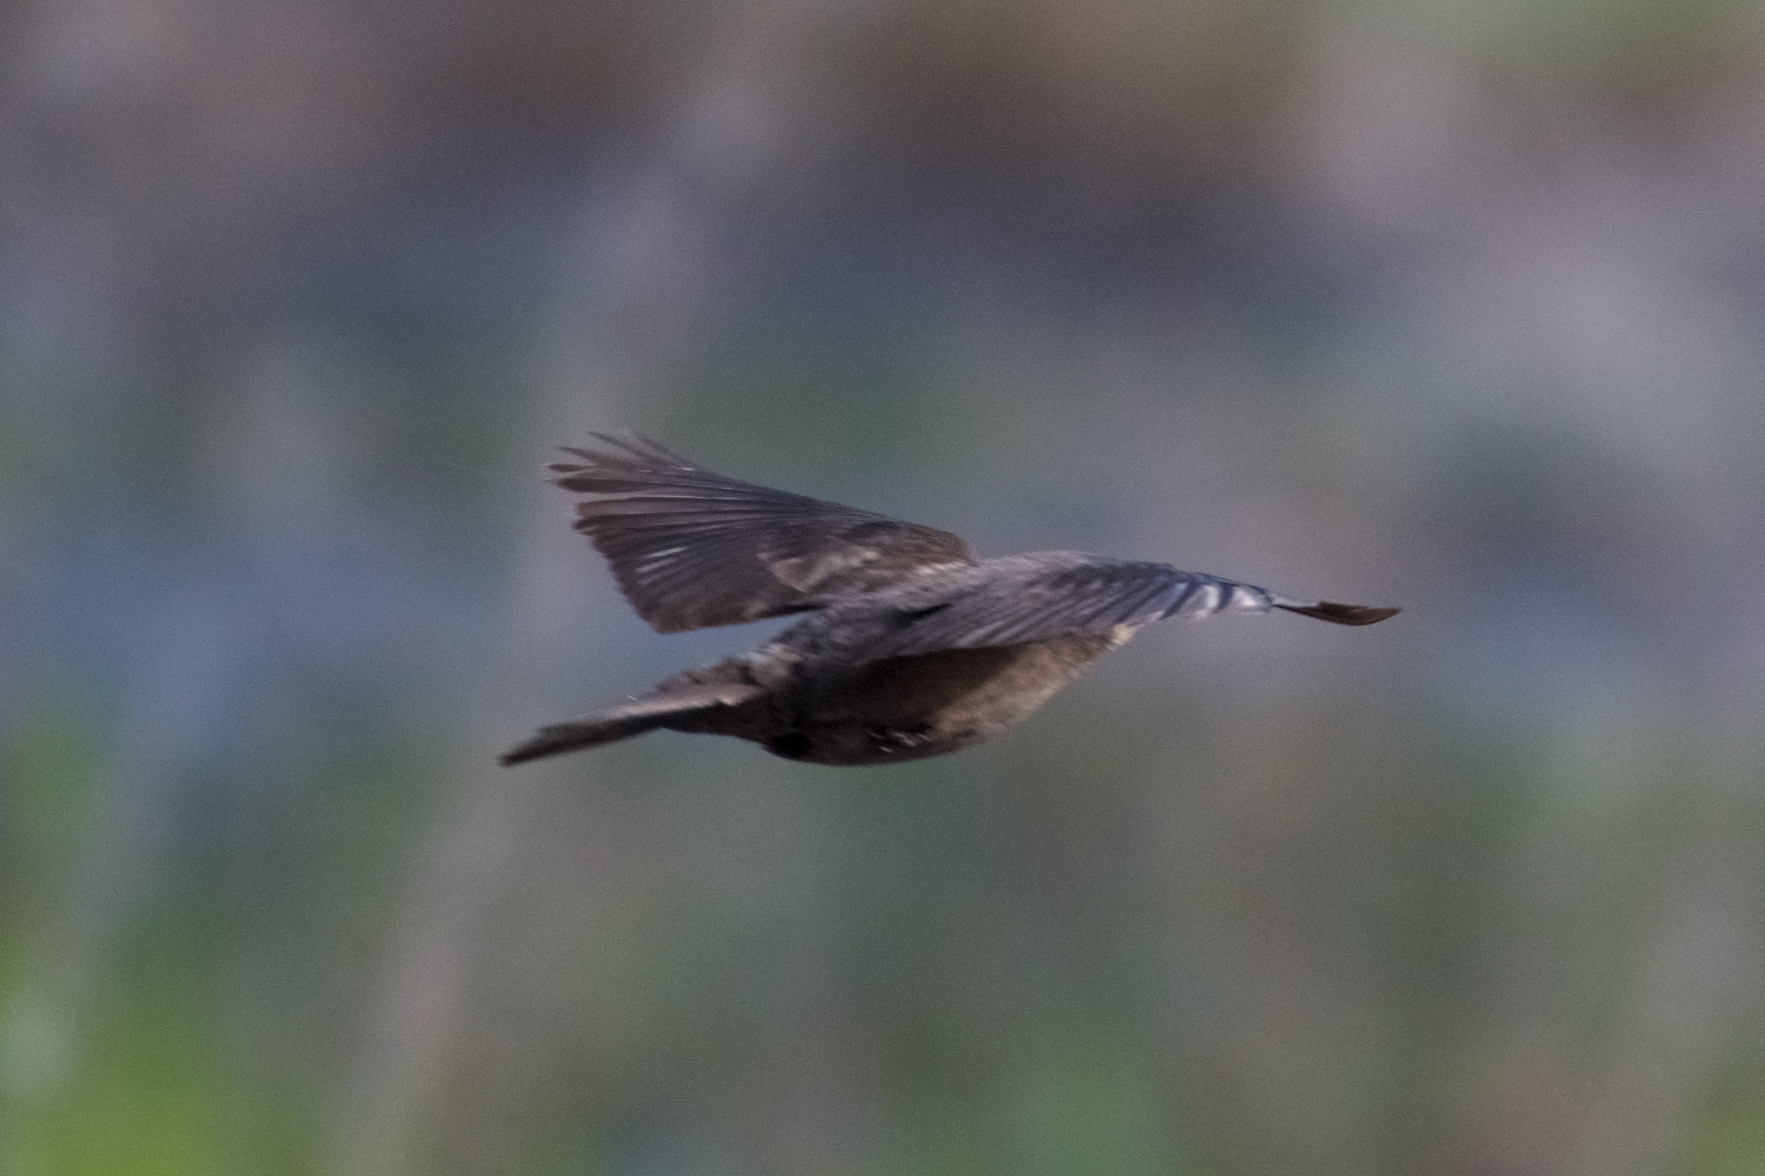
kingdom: Animalia
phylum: Chordata
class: Aves
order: Passeriformes
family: Icteridae
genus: Molothrus
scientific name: Molothrus ater
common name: Brown-headed cowbird
